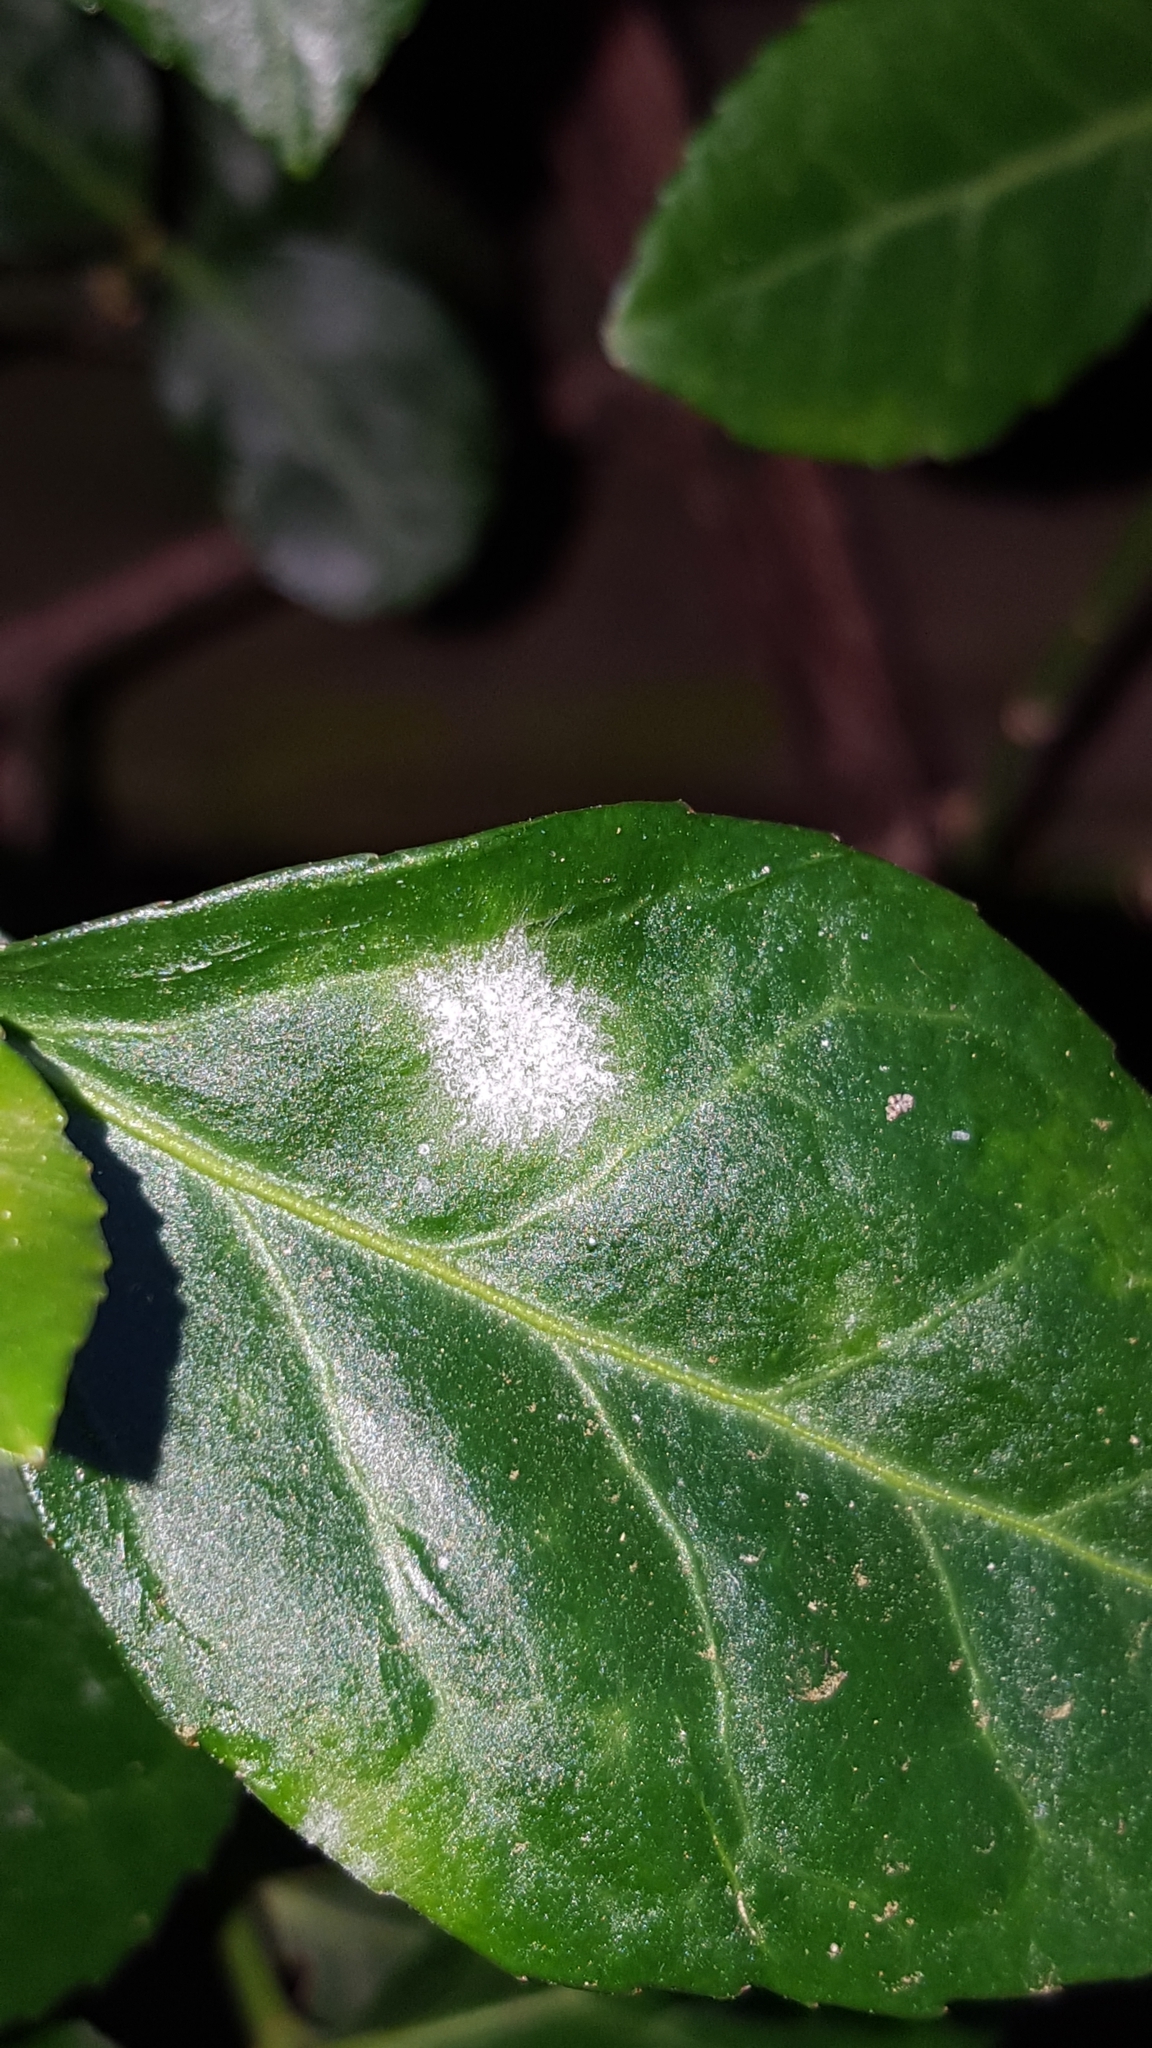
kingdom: Fungi
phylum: Ascomycota
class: Leotiomycetes
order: Helotiales
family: Erysiphaceae
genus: Erysiphe
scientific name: Erysiphe euonymicola
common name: Spindletree mildew
